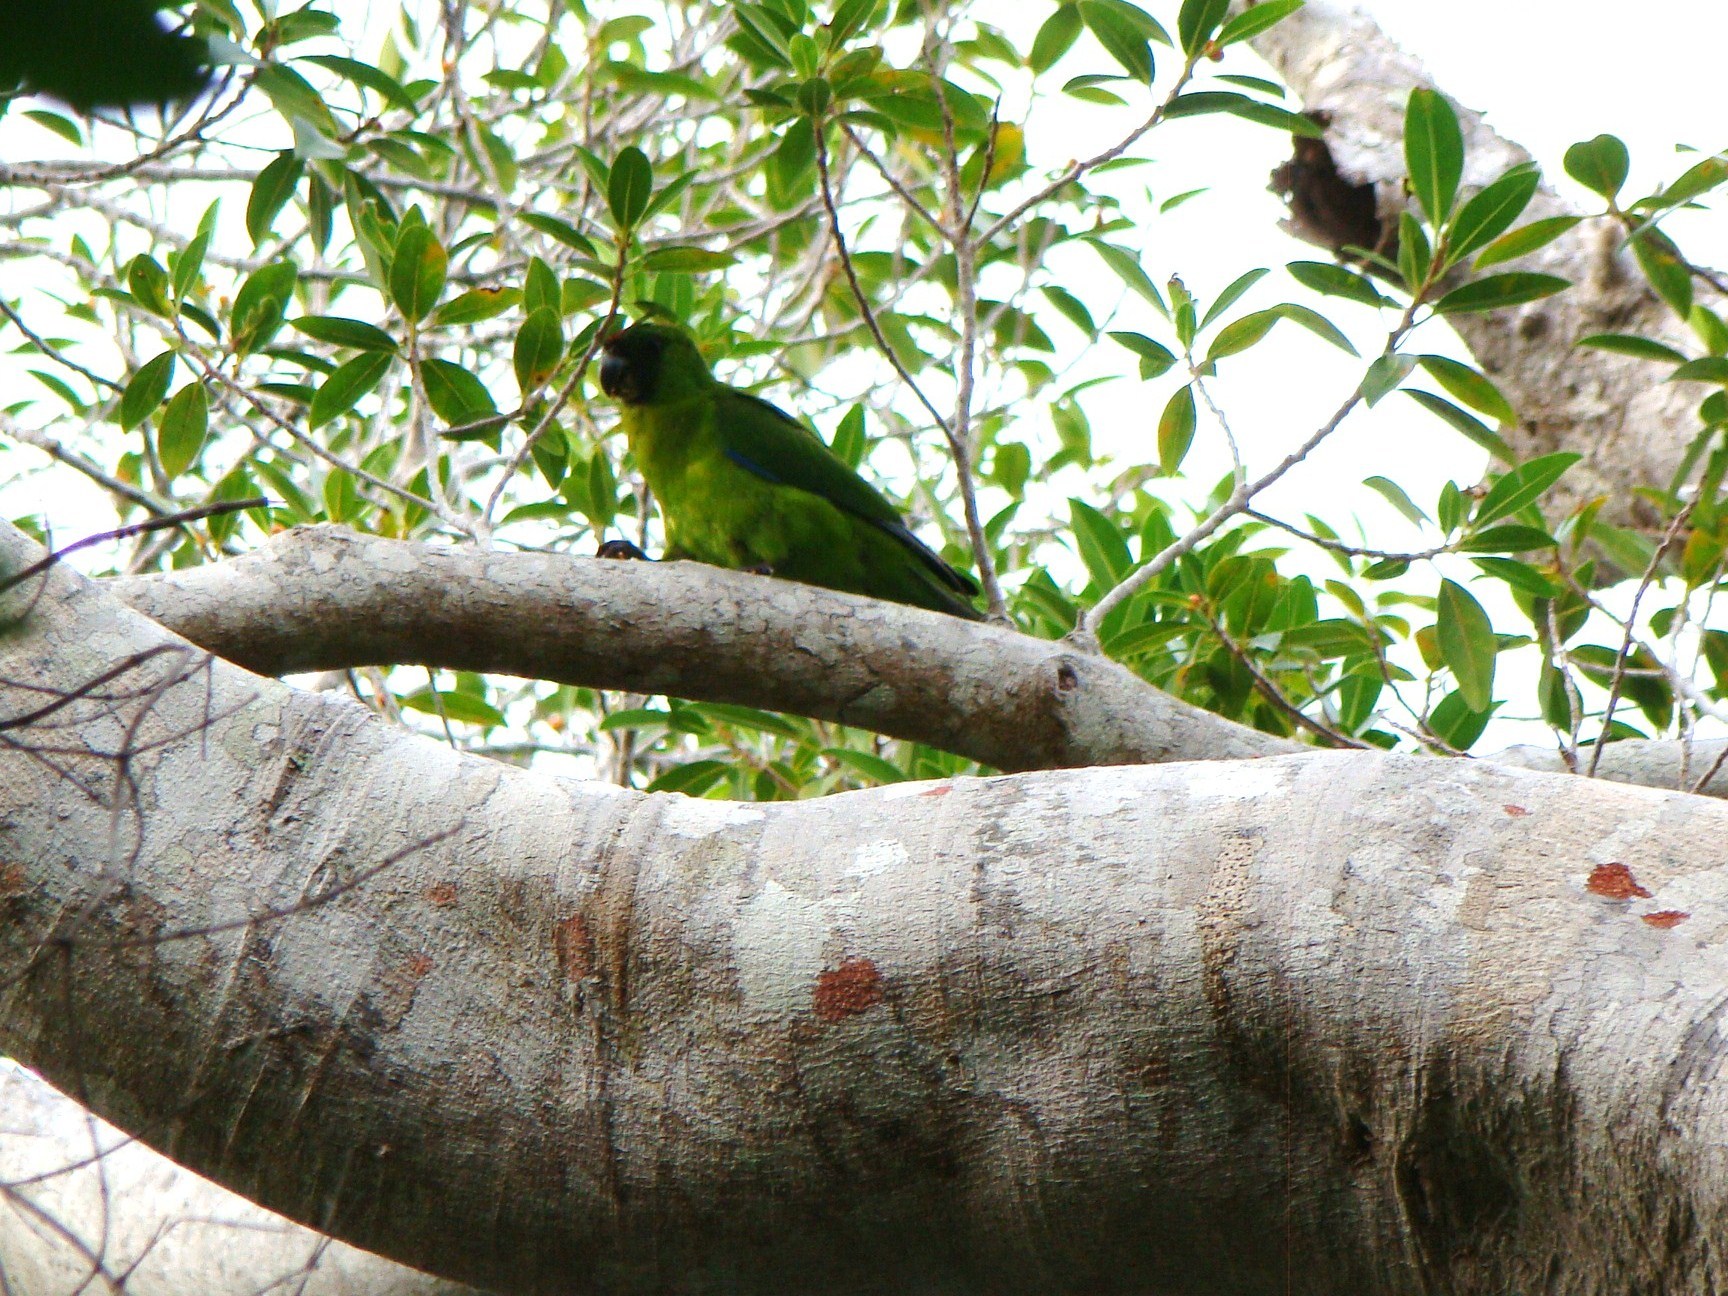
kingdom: Animalia
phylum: Chordata
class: Aves
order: Psittaciformes
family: Psittacidae
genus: Eunymphicus
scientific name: Eunymphicus cornutus
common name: Horned parakeet
